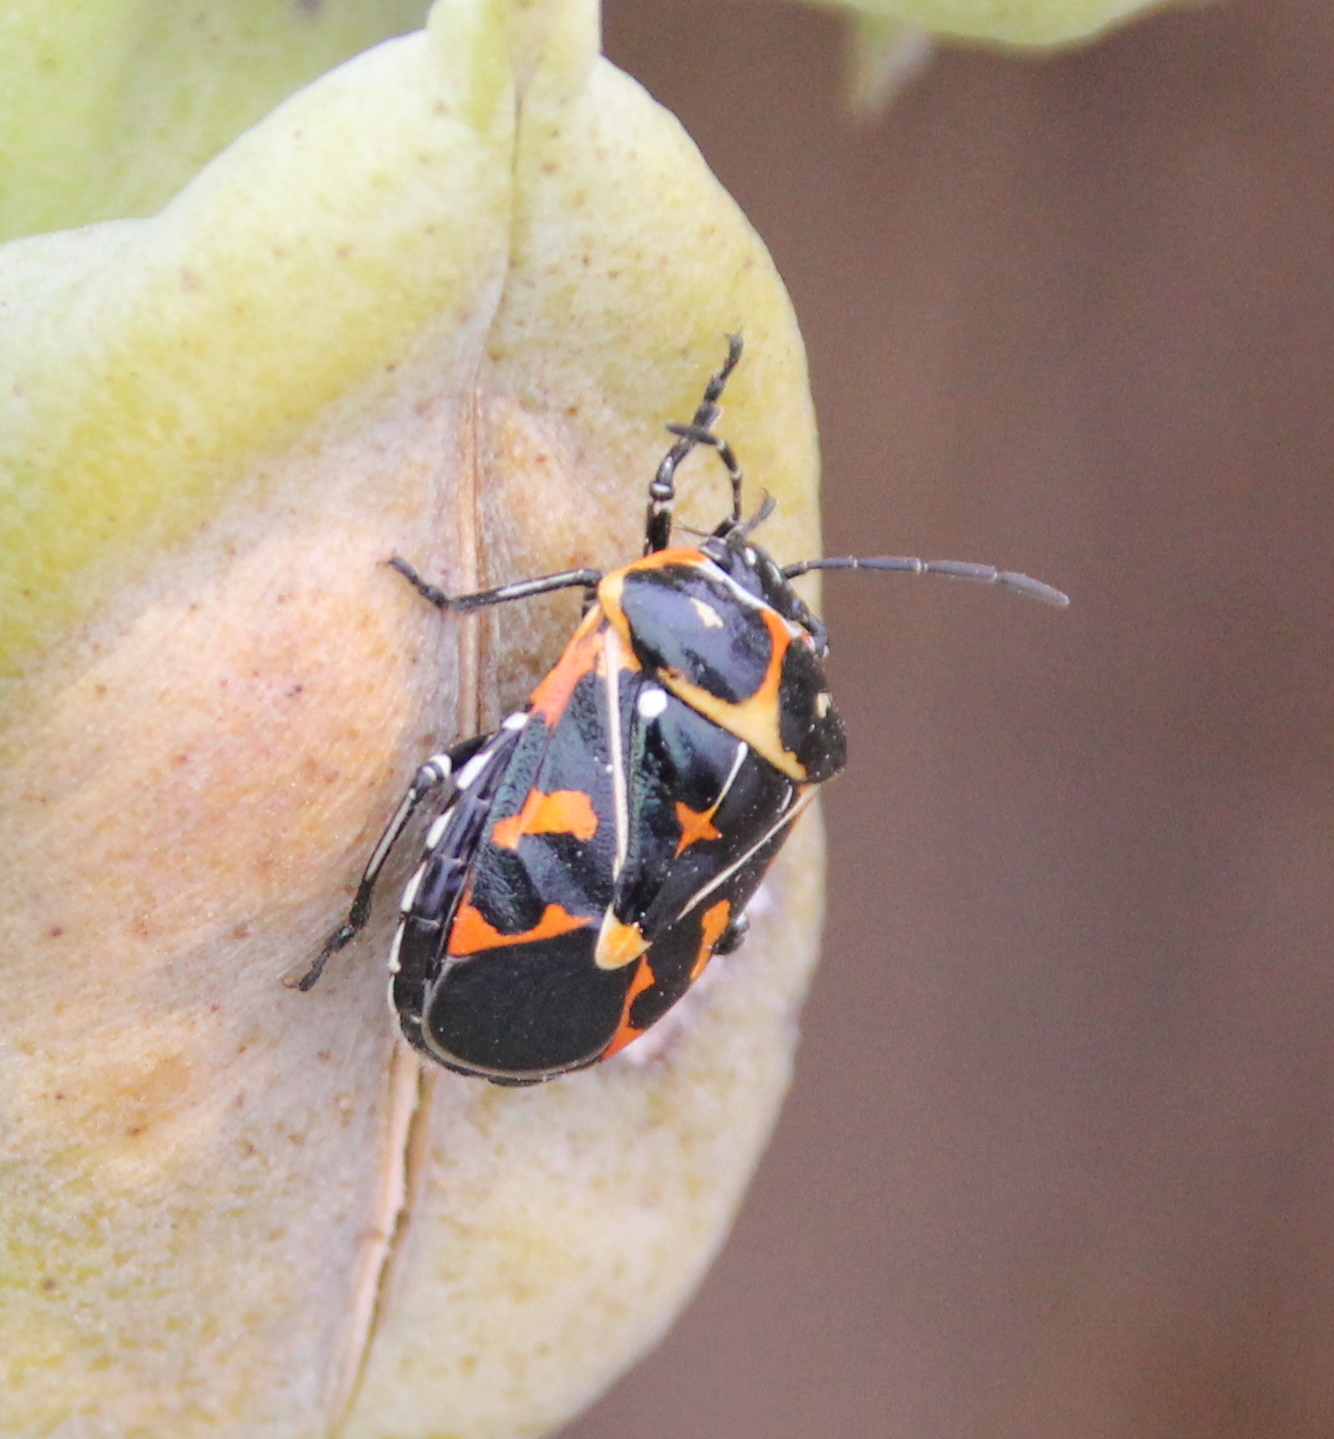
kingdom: Animalia
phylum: Arthropoda
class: Insecta
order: Hemiptera
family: Pentatomidae
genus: Murgantia
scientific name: Murgantia histrionica
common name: Harlequin bug
